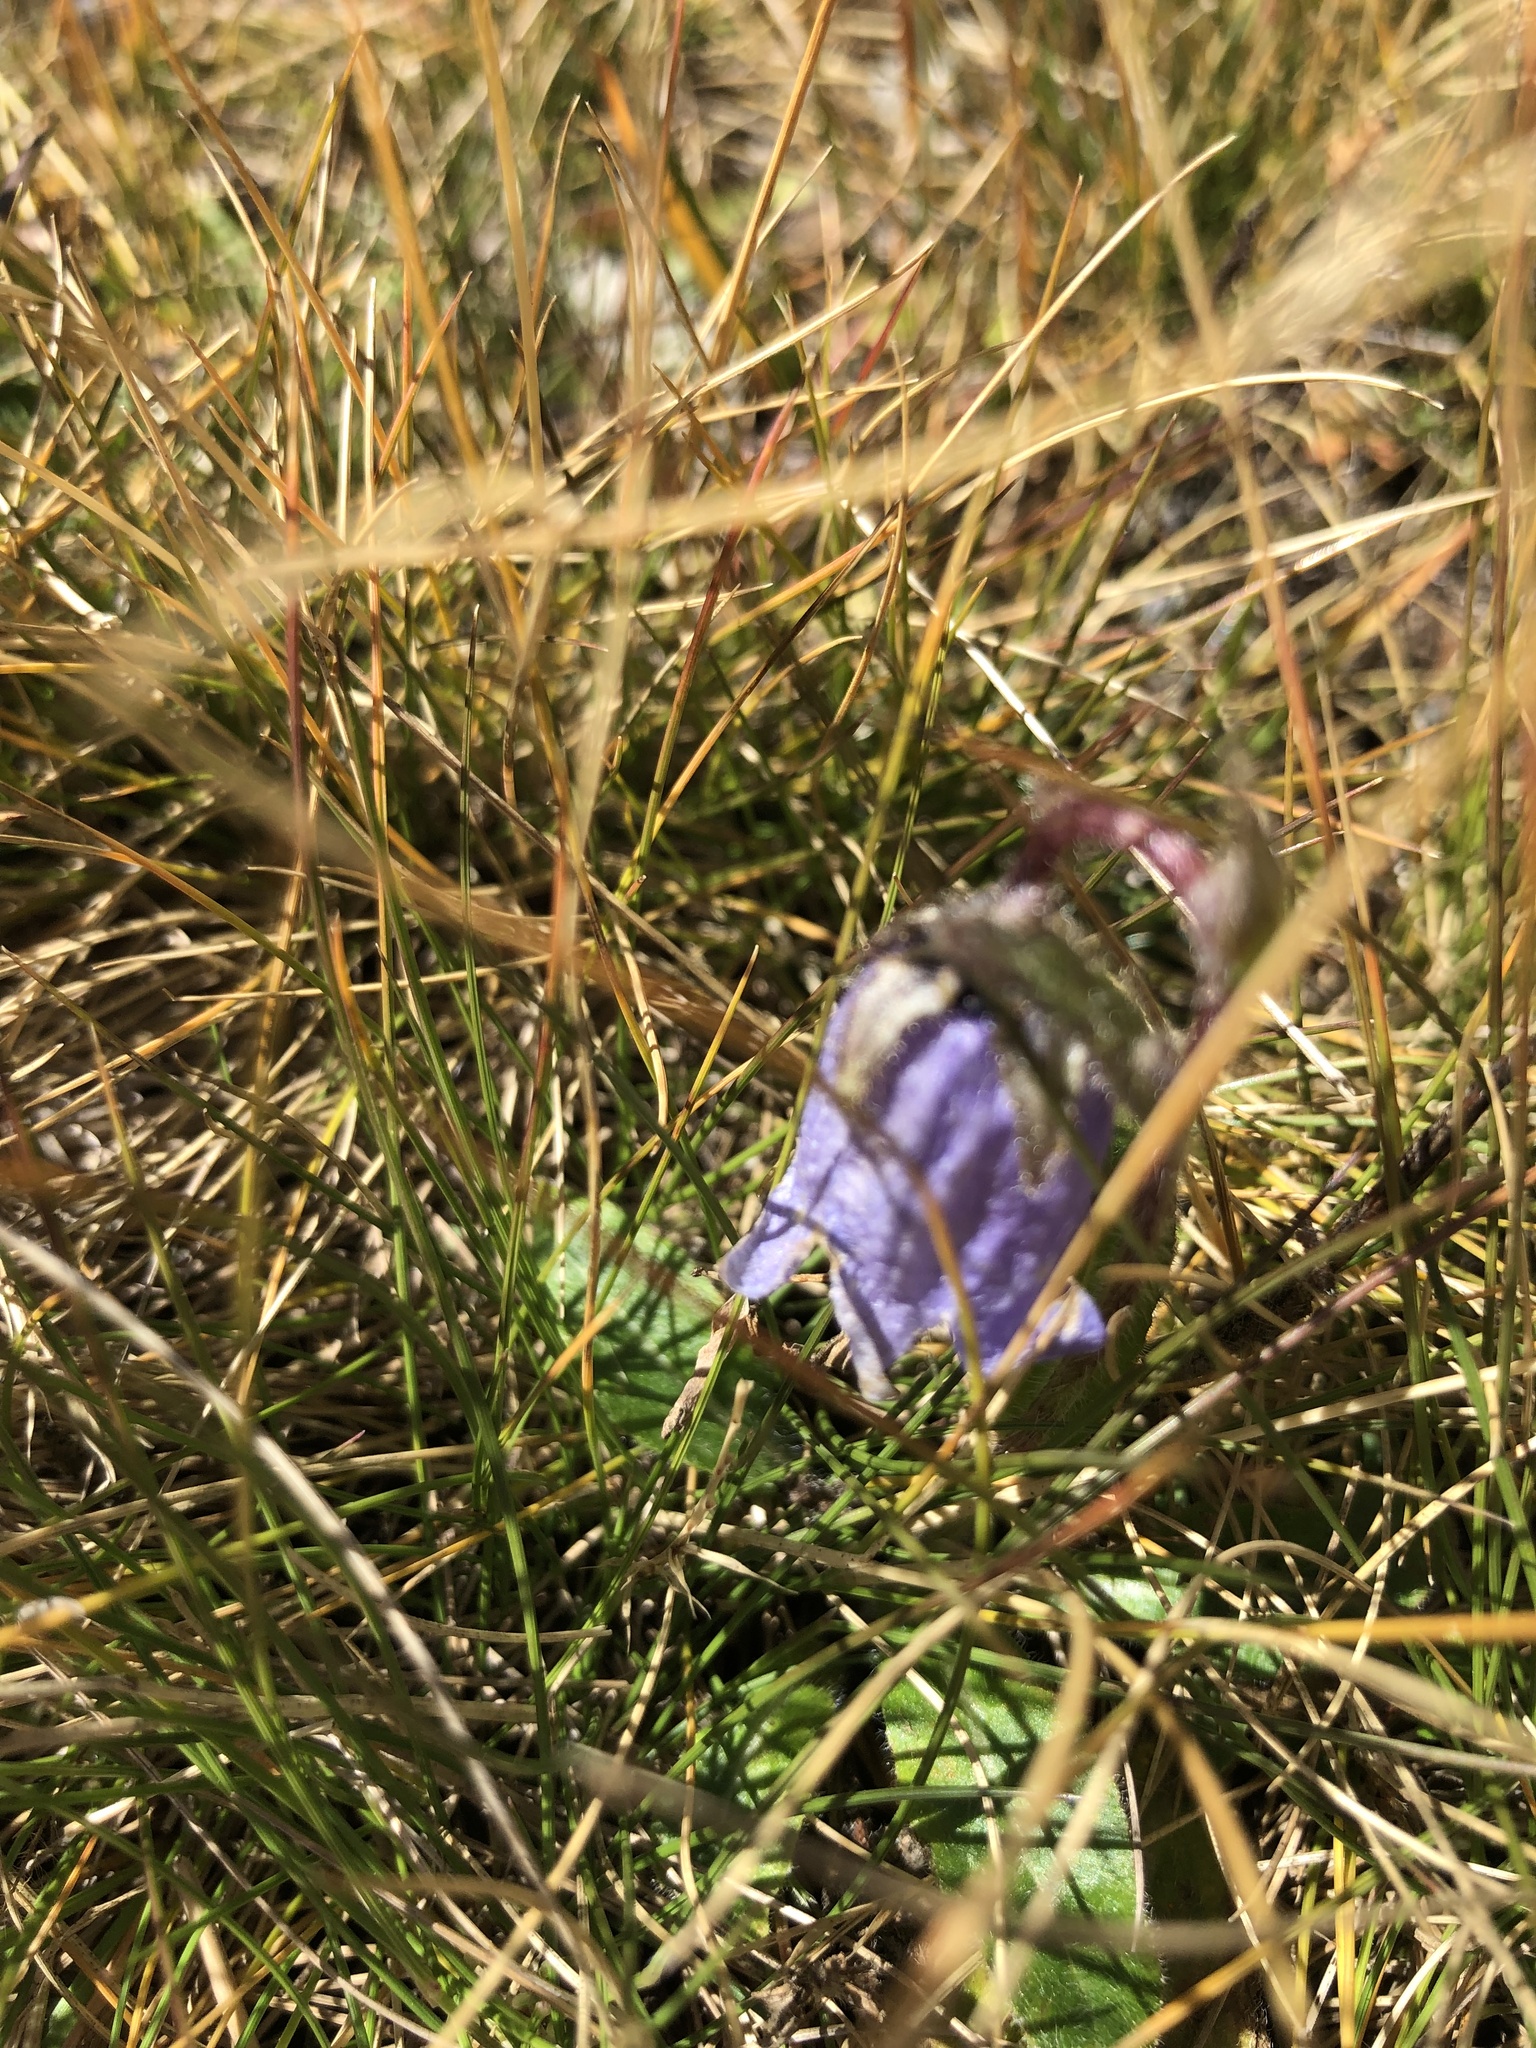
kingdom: Plantae
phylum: Tracheophyta
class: Magnoliopsida
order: Asterales
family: Campanulaceae
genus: Campanula
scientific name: Campanula barbata
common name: Bearded bellflower
